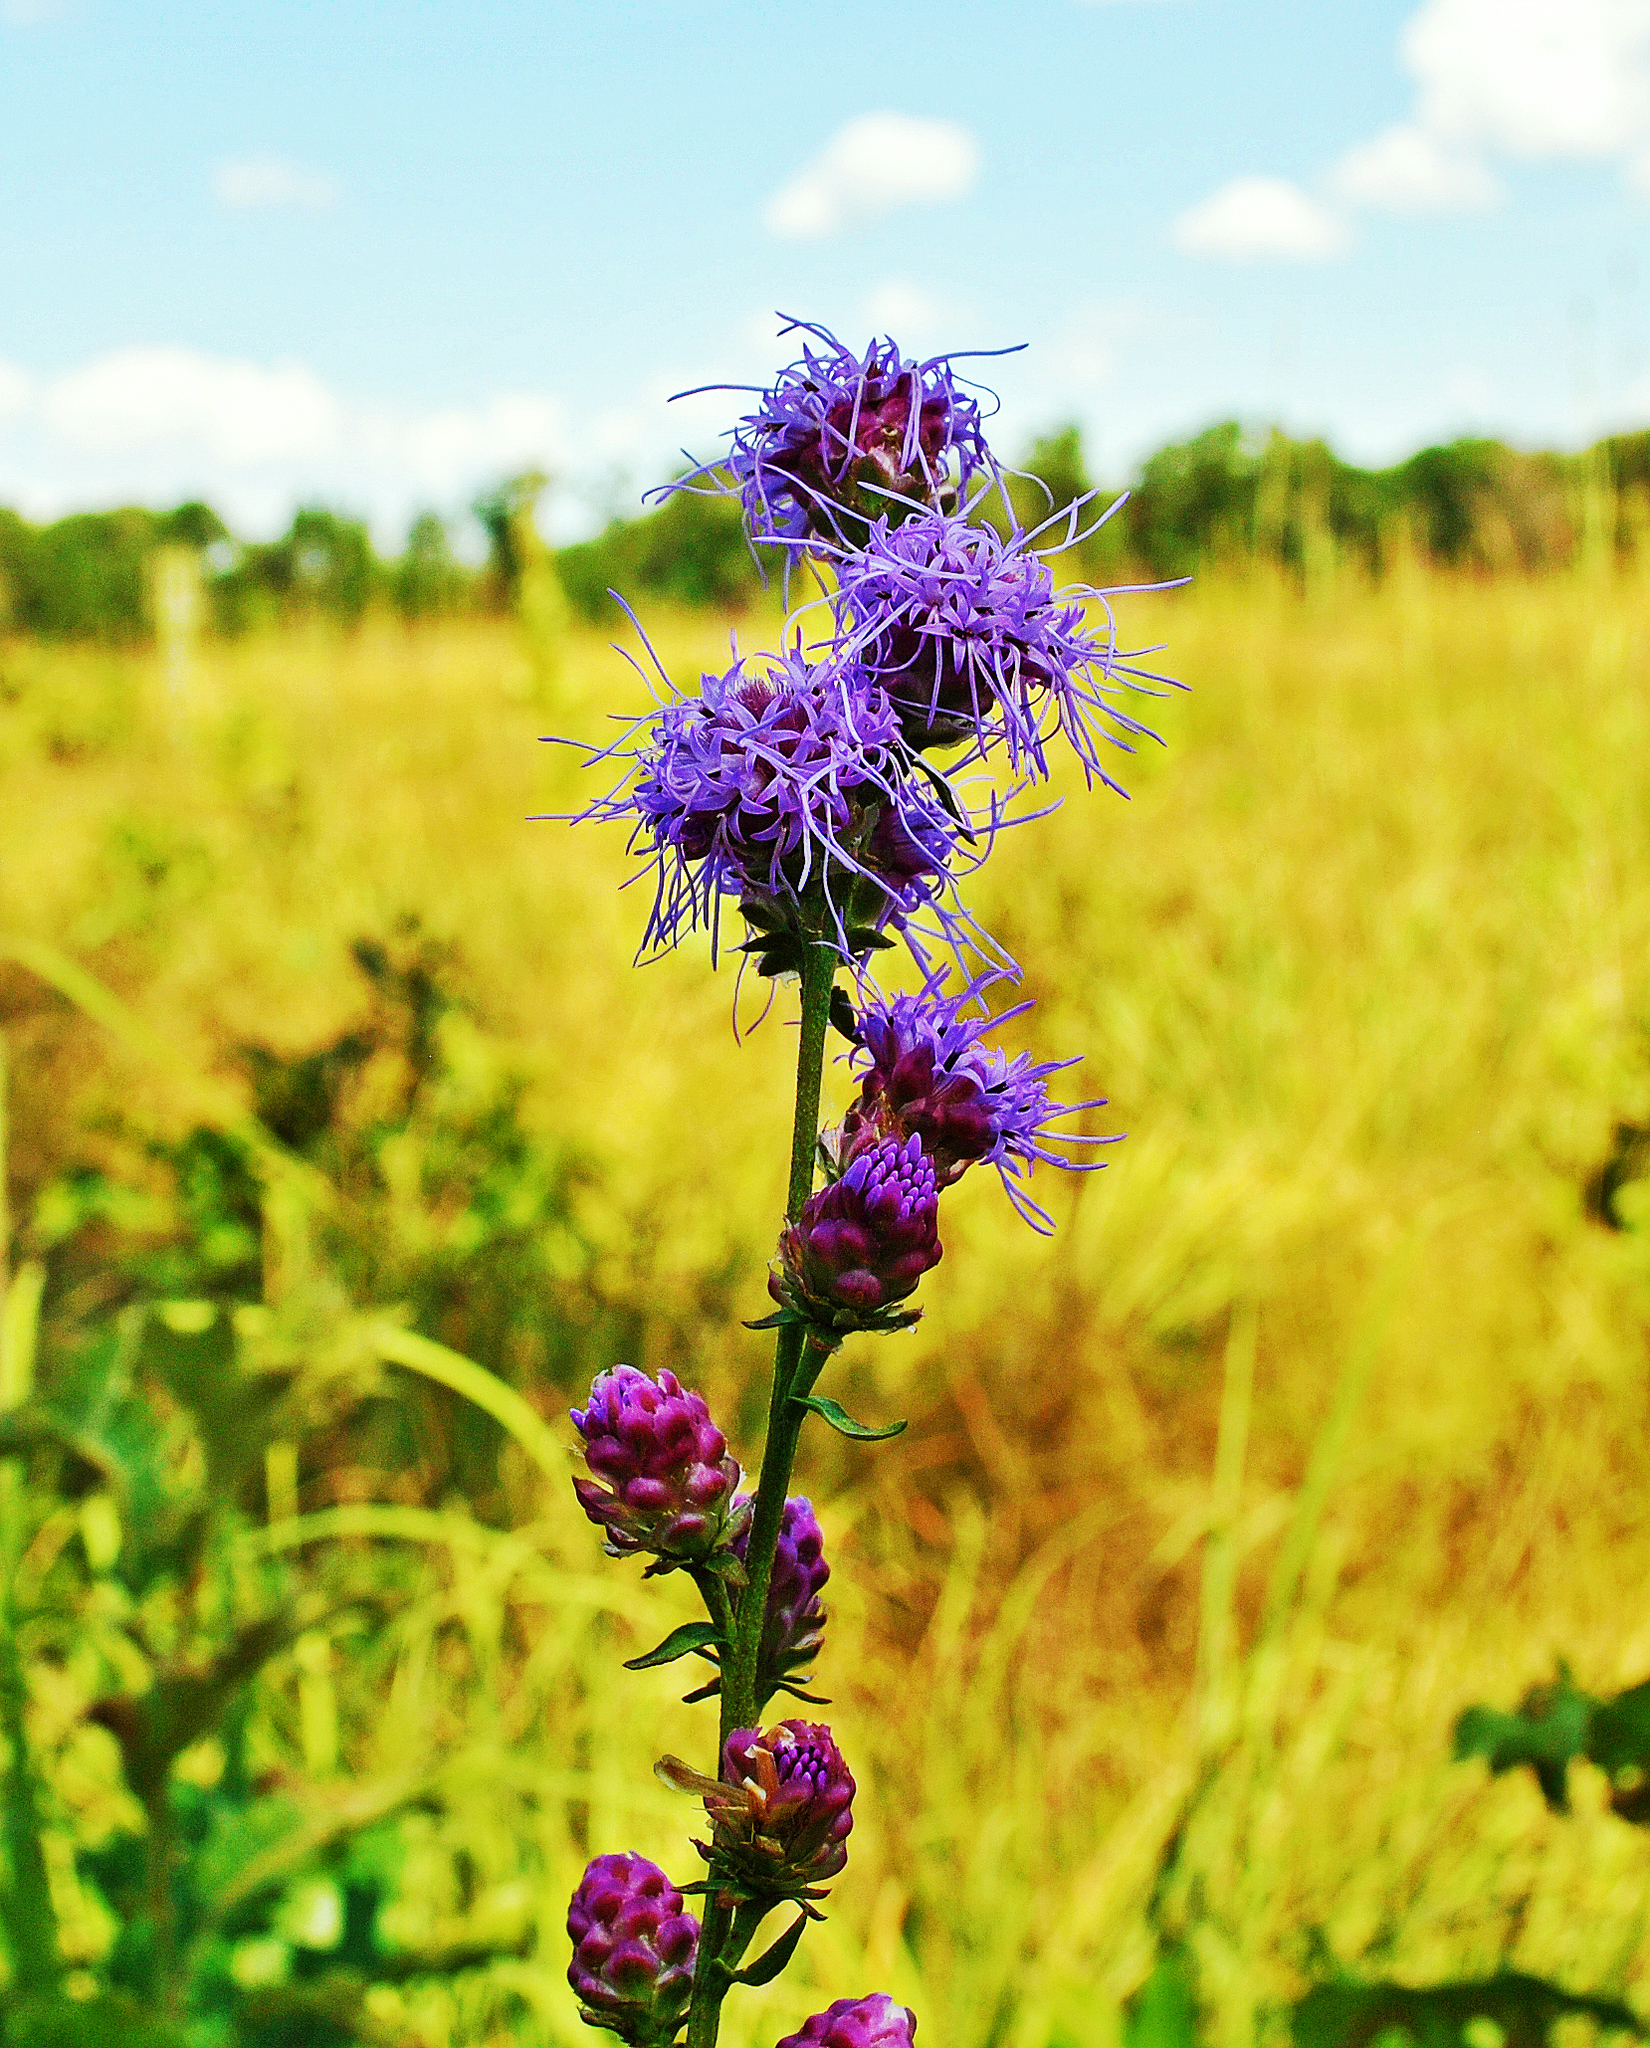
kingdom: Plantae
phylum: Tracheophyta
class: Magnoliopsida
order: Asterales
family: Asteraceae
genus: Liatris
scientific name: Liatris aspera
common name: Lacerate blazing-star
